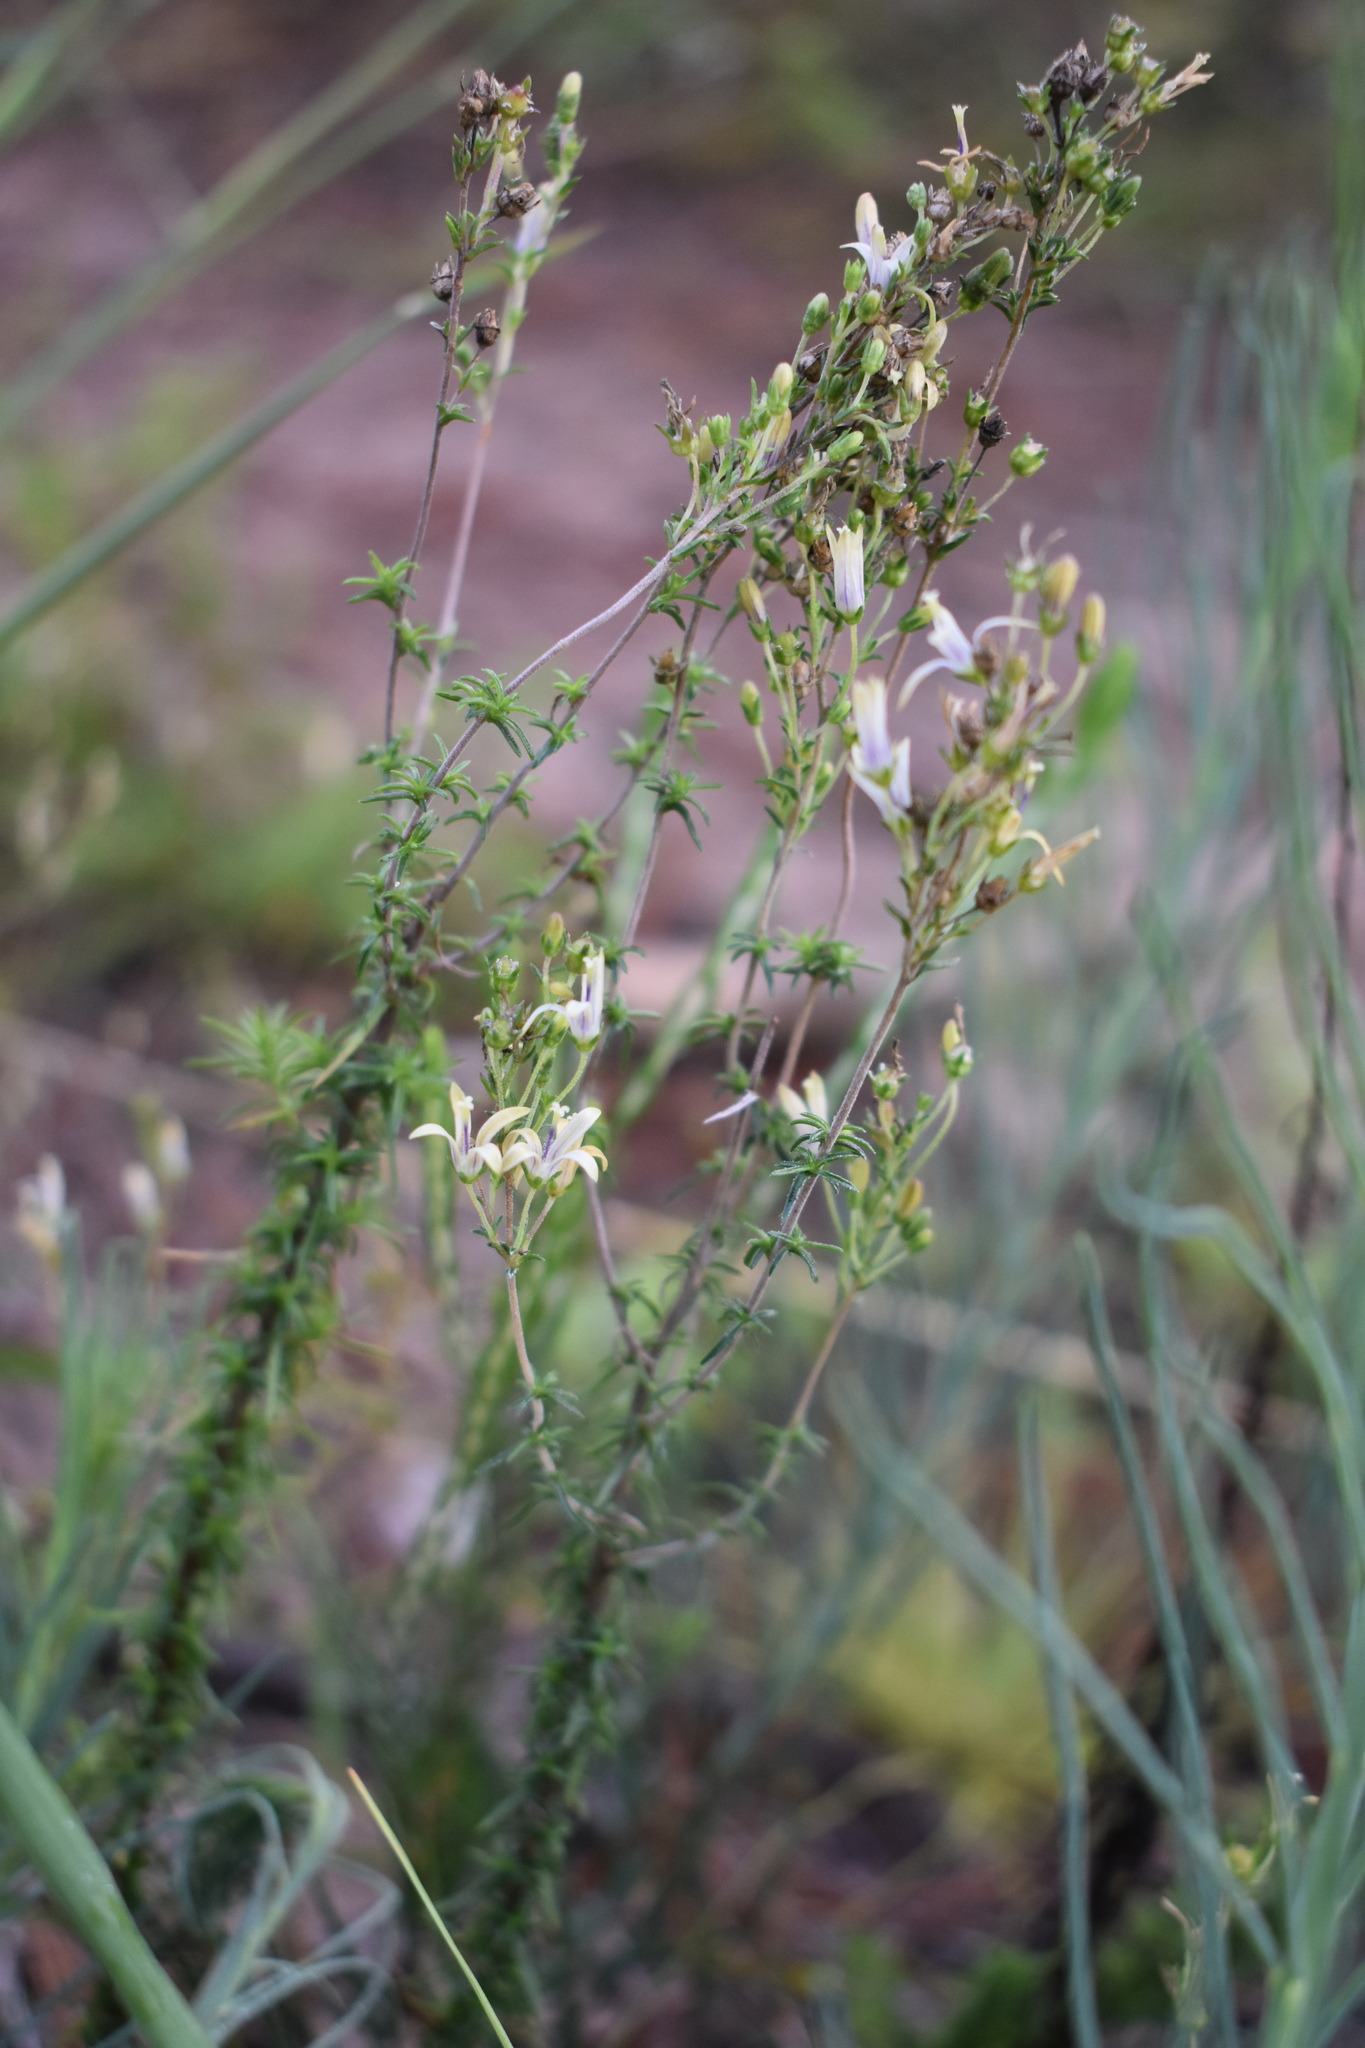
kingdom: Plantae
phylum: Tracheophyta
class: Magnoliopsida
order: Asterales
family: Campanulaceae
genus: Wahlenbergia
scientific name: Wahlenbergia neostricta
